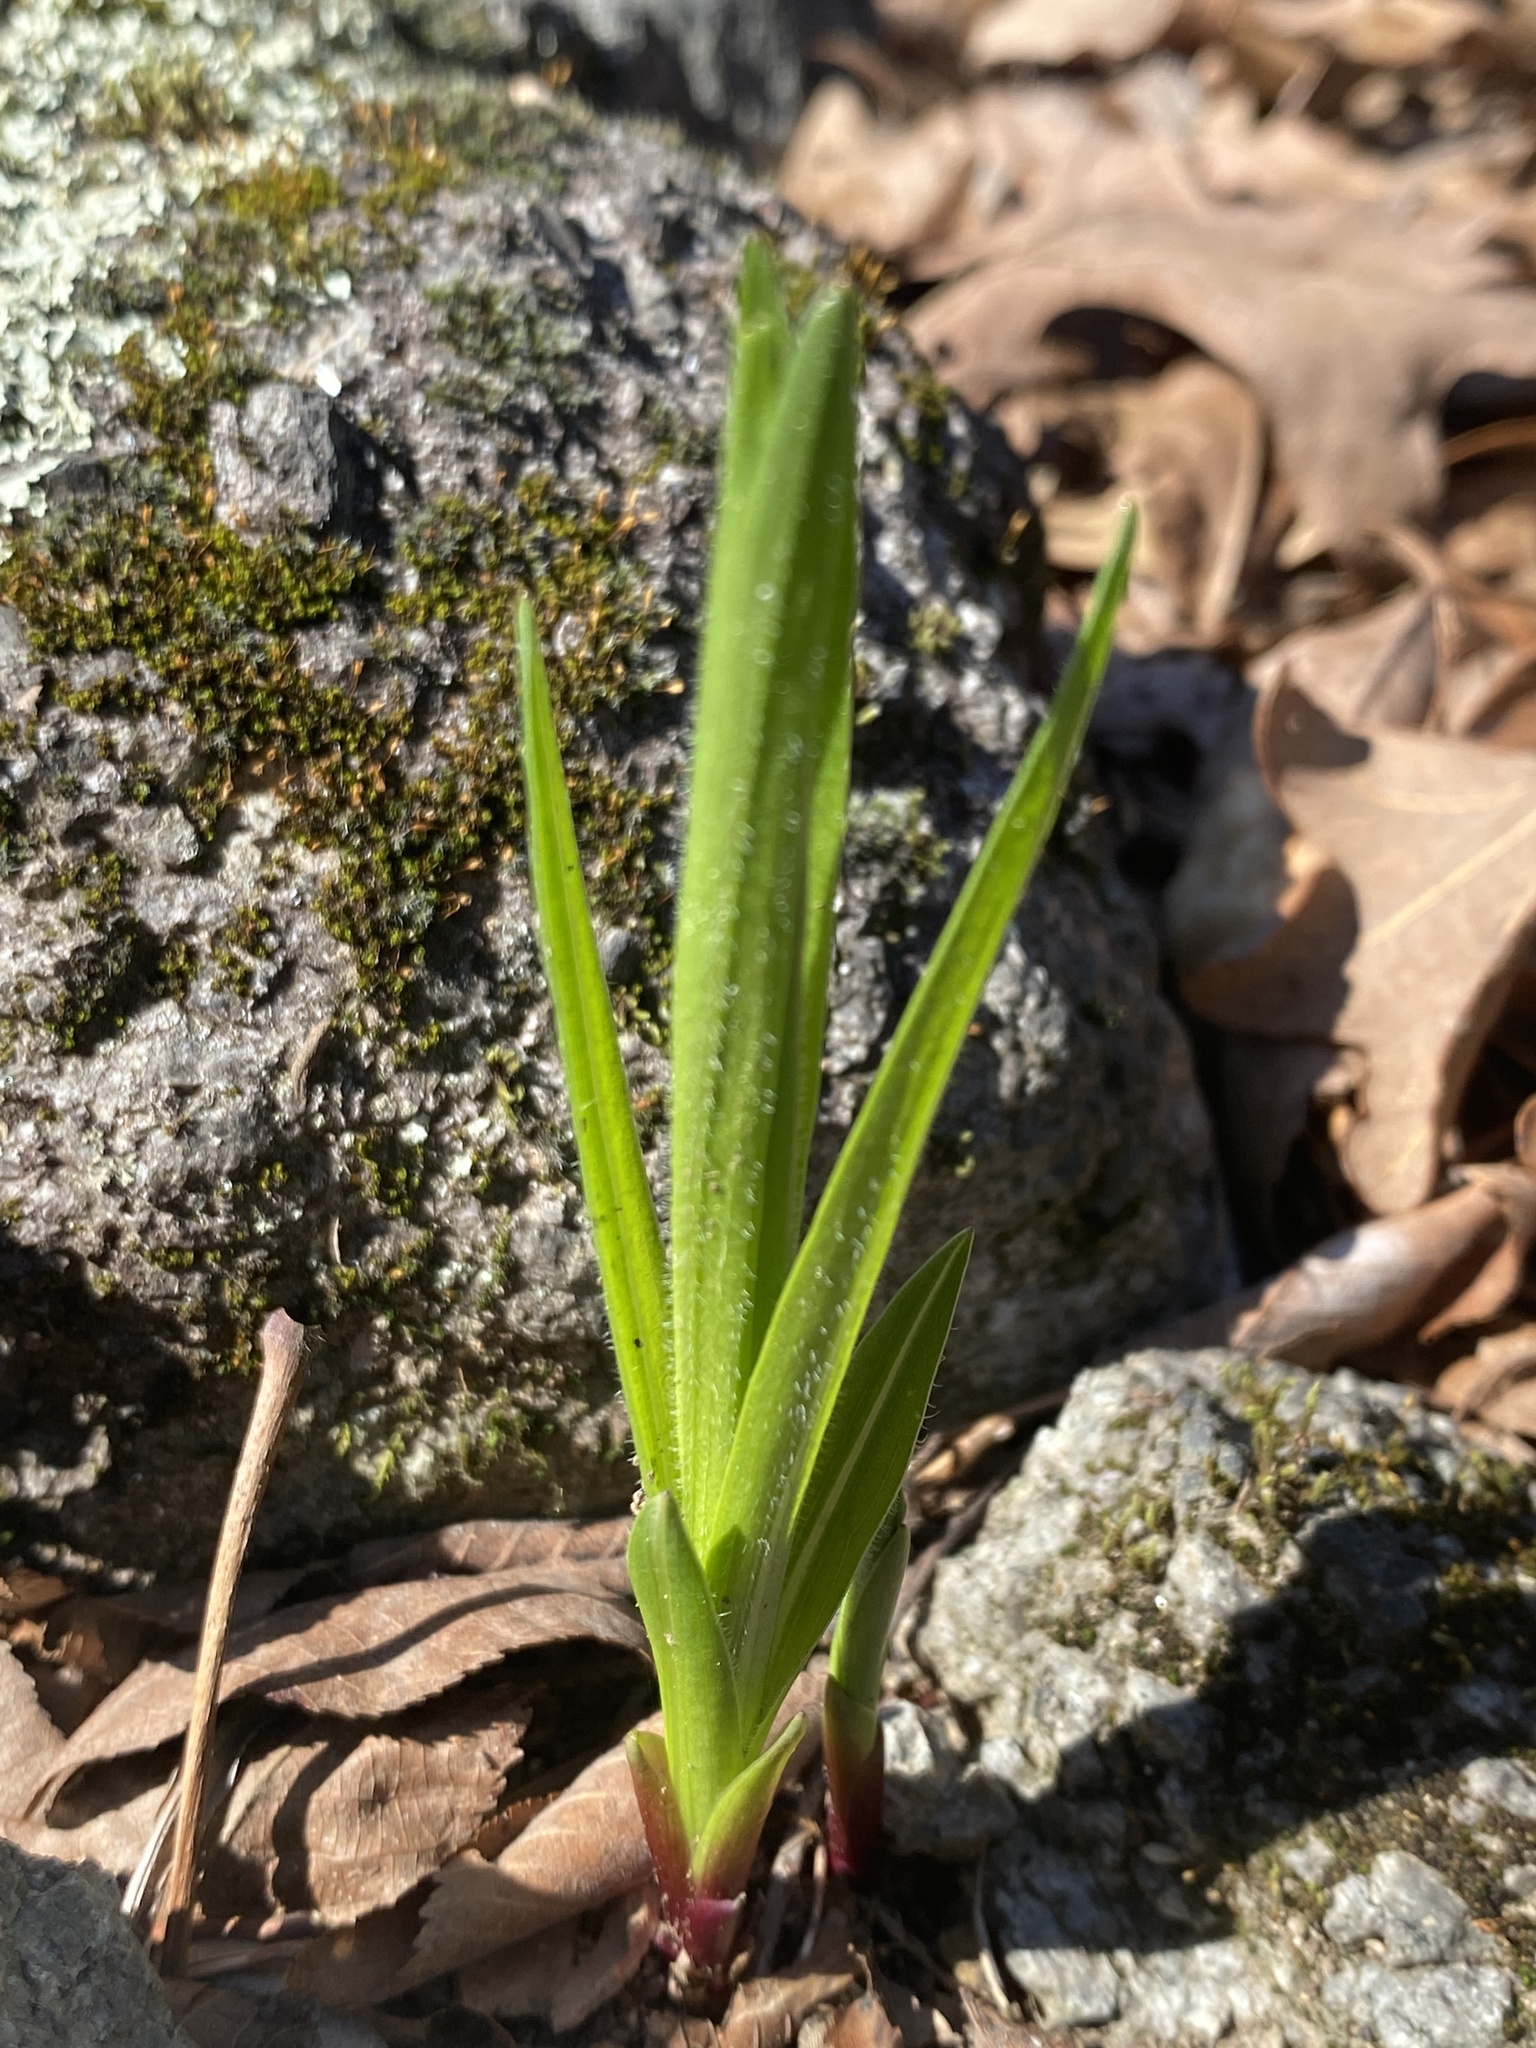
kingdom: Plantae
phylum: Tracheophyta
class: Magnoliopsida
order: Asterales
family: Asteraceae
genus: Liatris
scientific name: Liatris hirsuta
